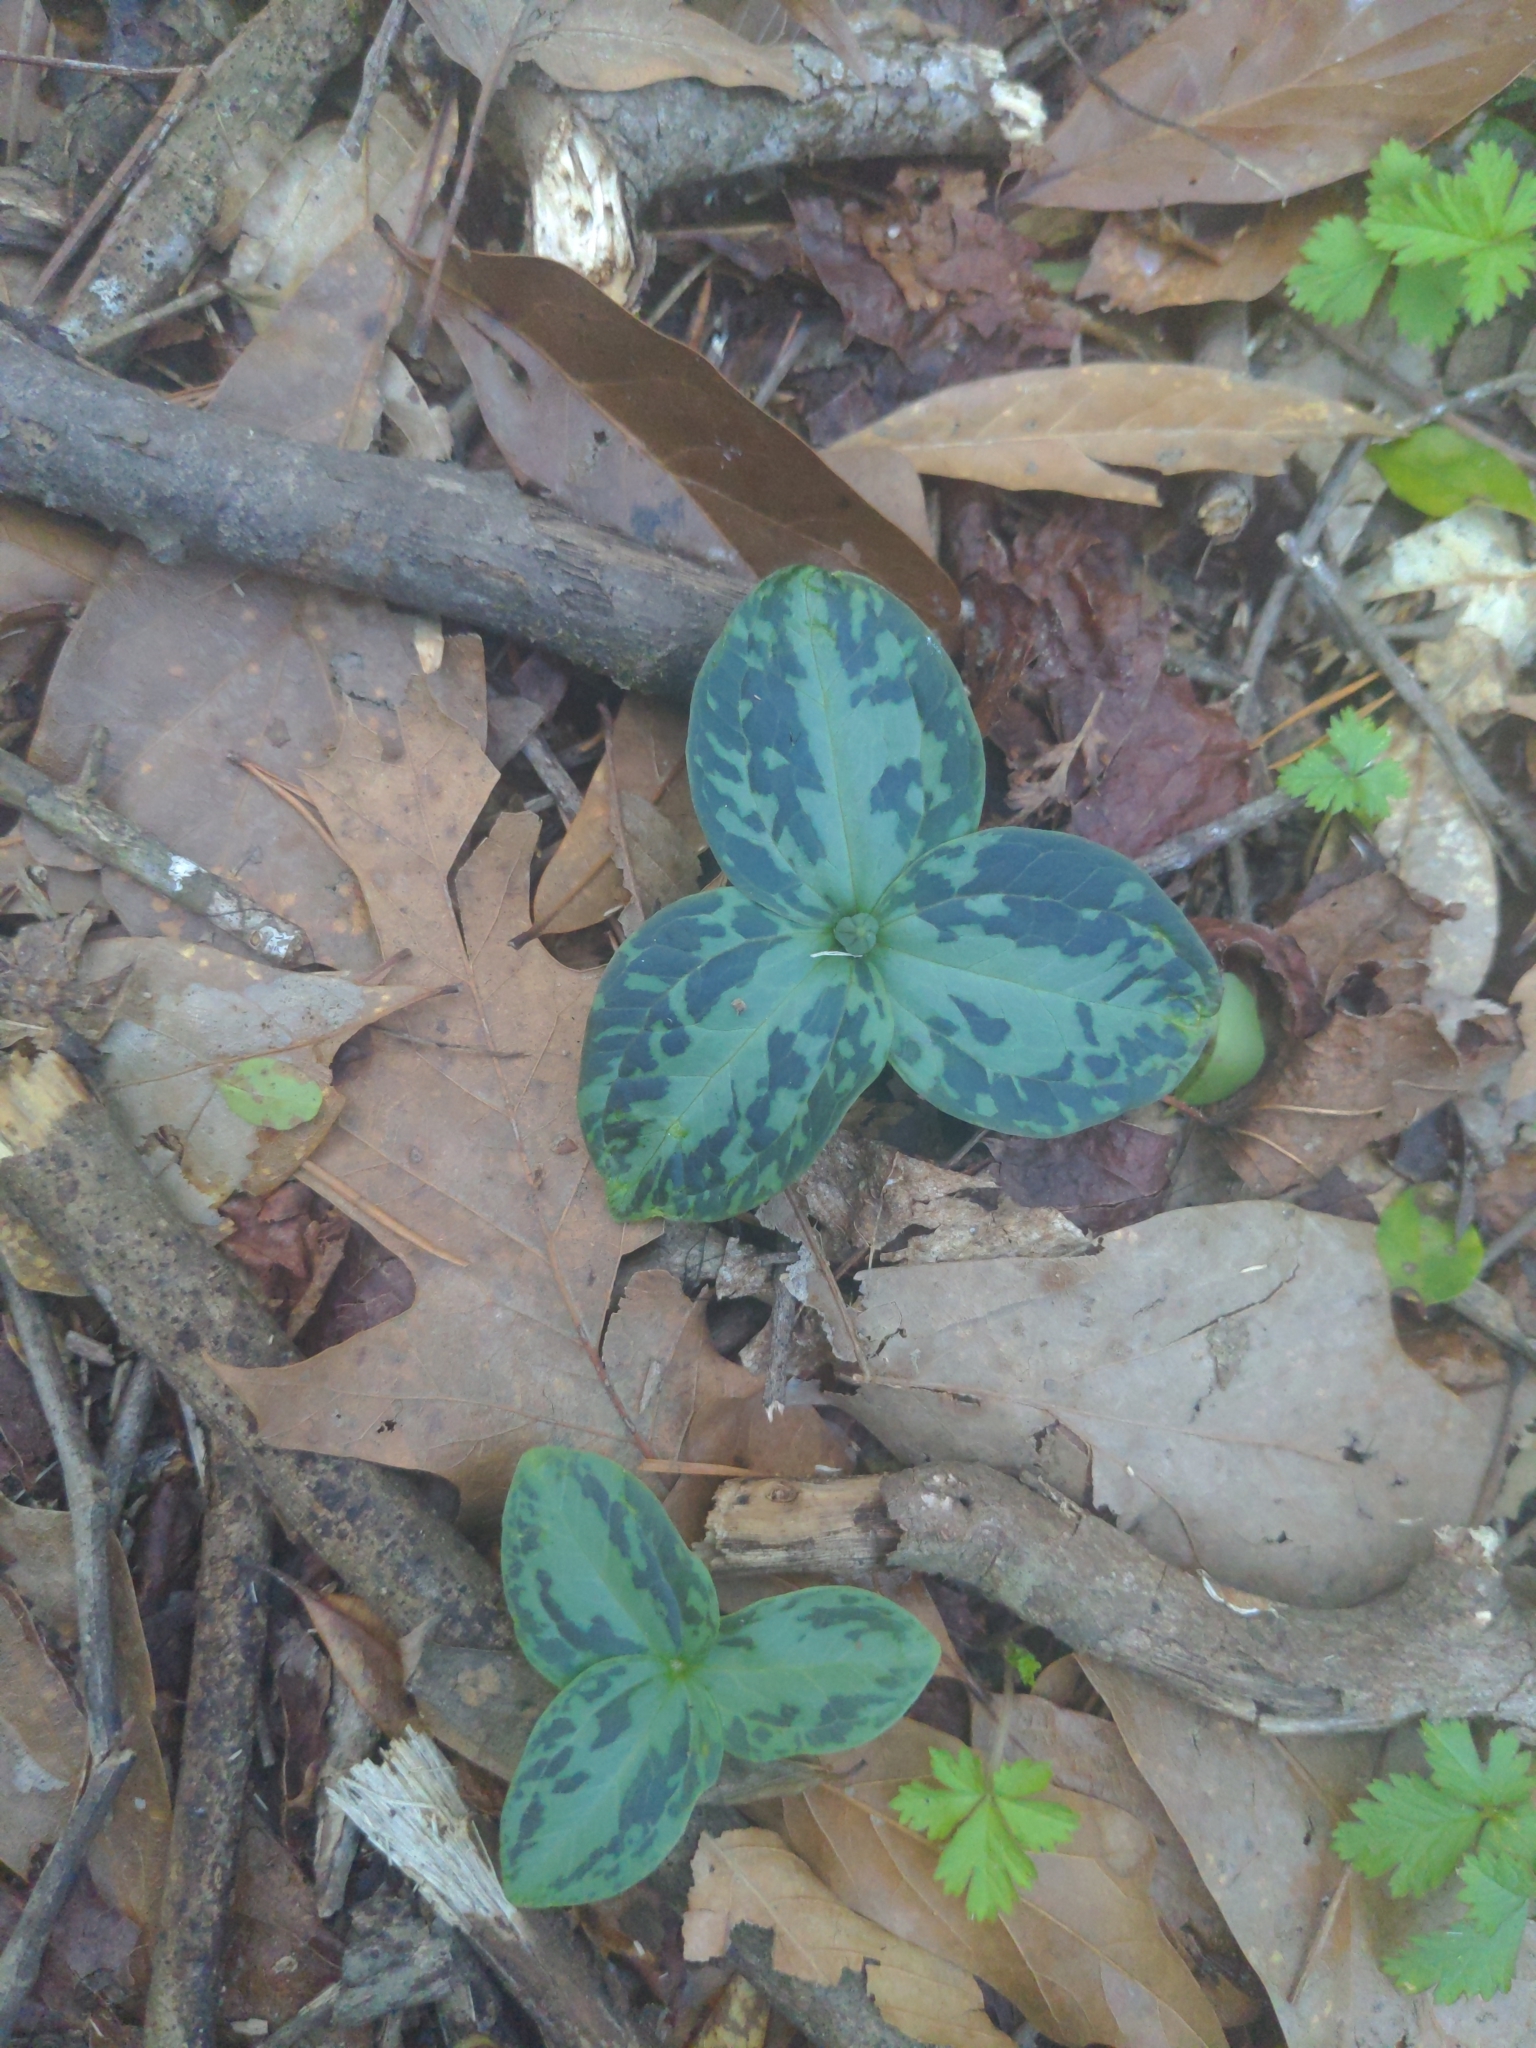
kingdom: Plantae
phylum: Tracheophyta
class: Liliopsida
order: Liliales
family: Melanthiaceae
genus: Trillium
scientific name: Trillium foetidissimum
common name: Mississippi river trillium
